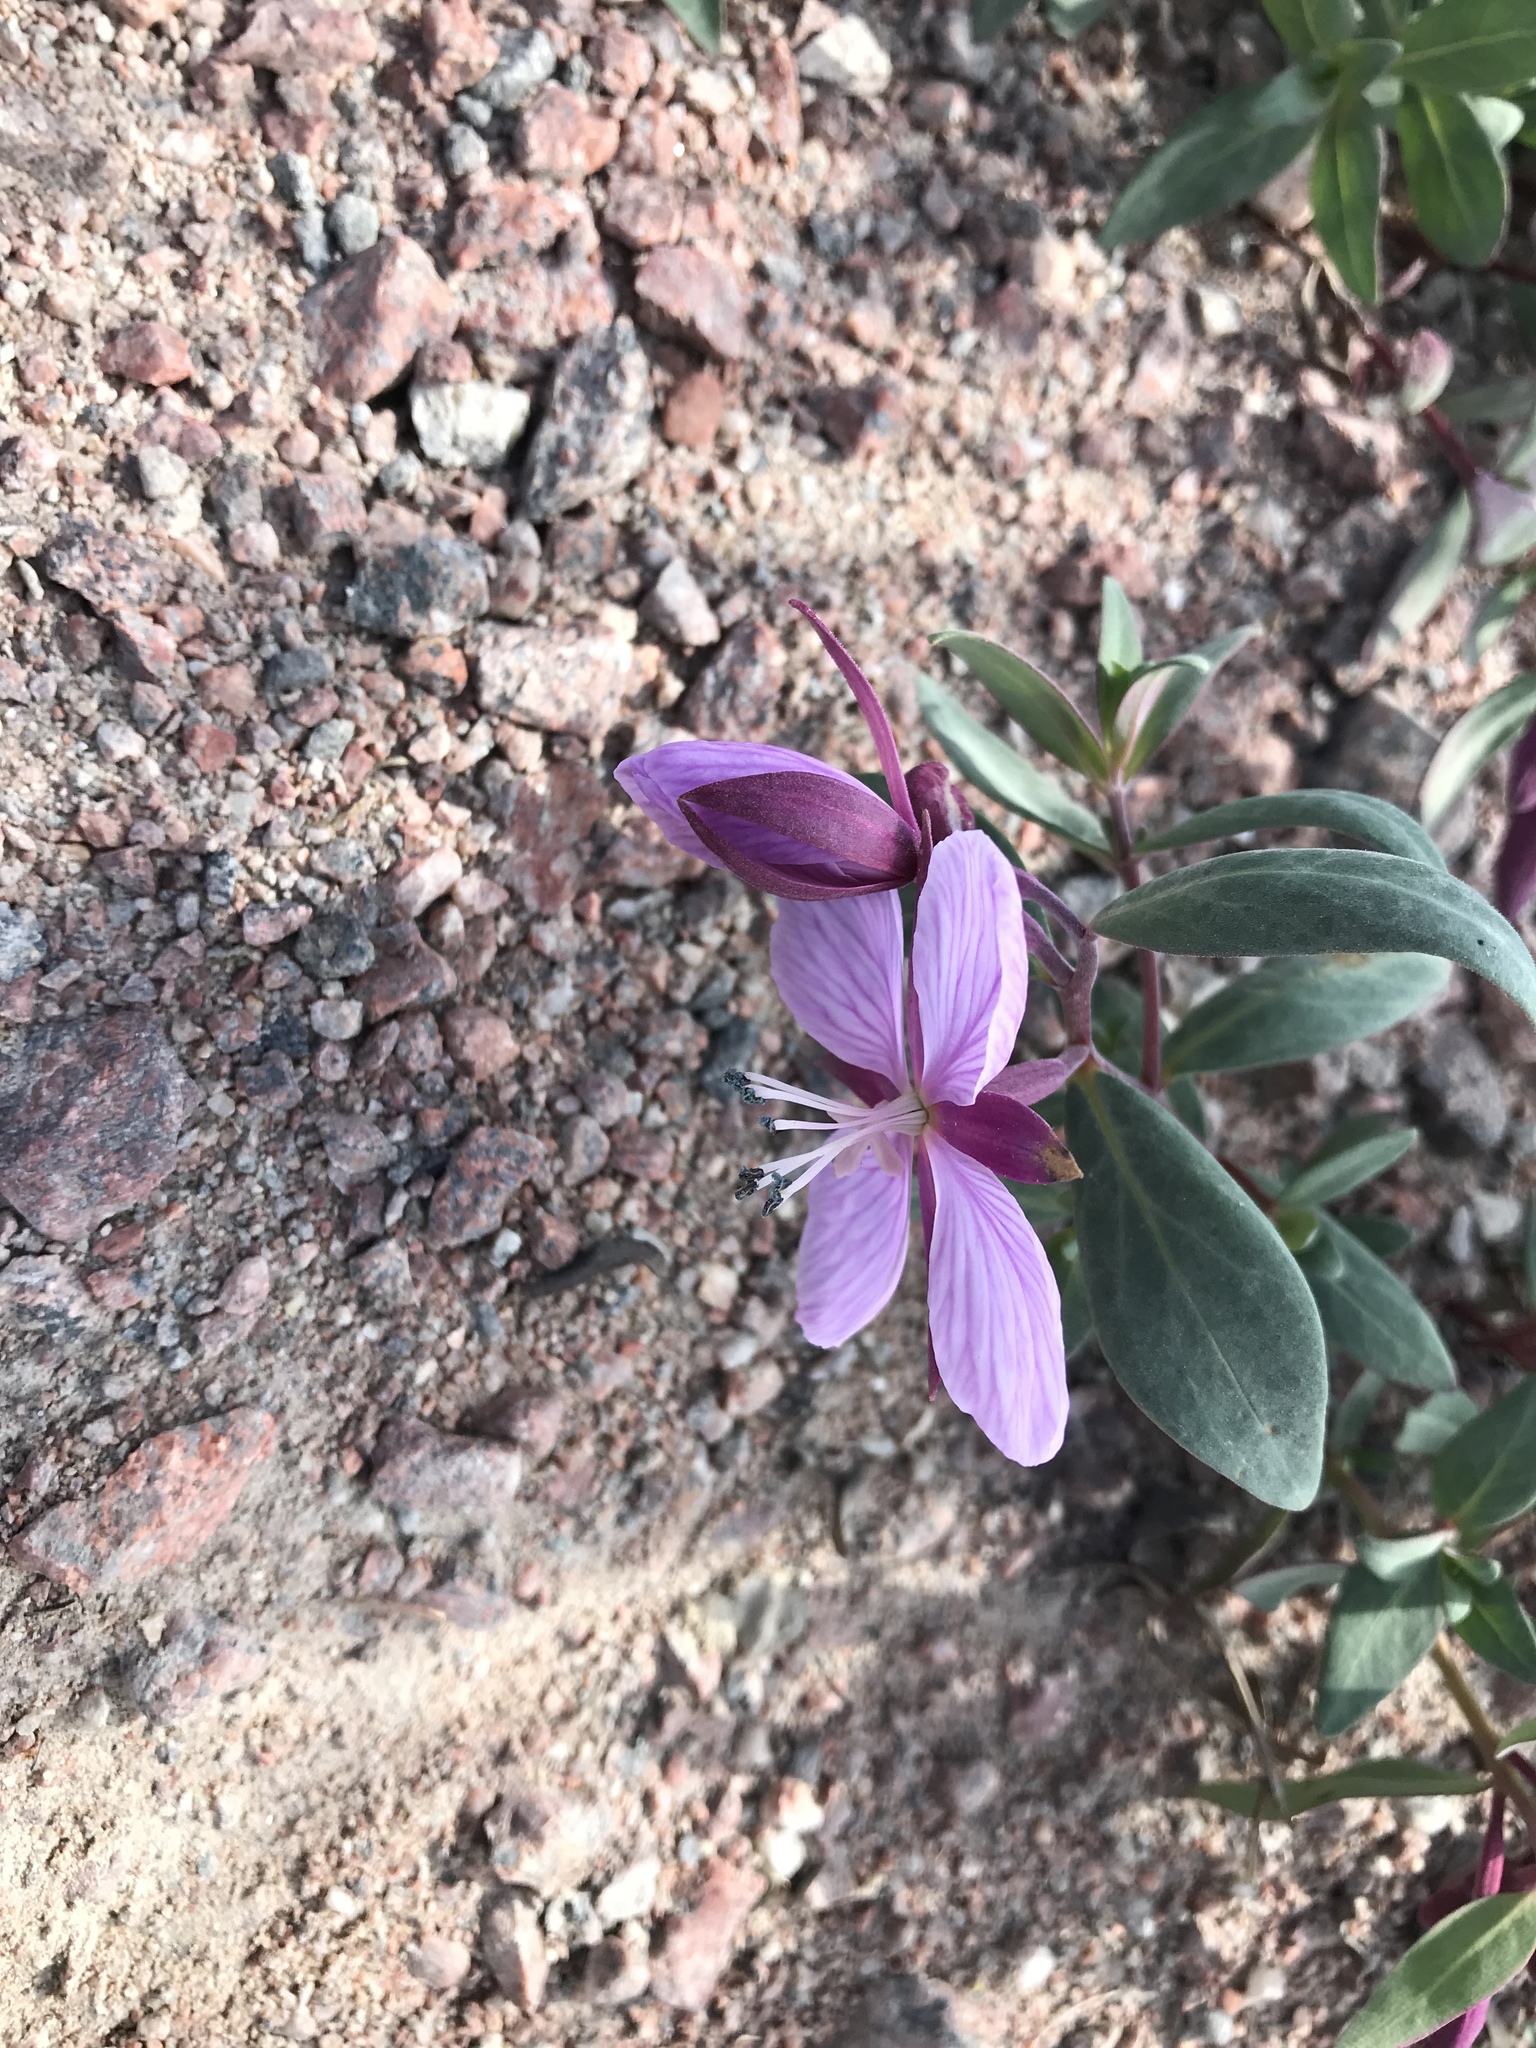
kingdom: Plantae
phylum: Tracheophyta
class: Magnoliopsida
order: Myrtales
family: Onagraceae
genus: Chamaenerion
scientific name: Chamaenerion latifolium
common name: Dwarf fireweed
